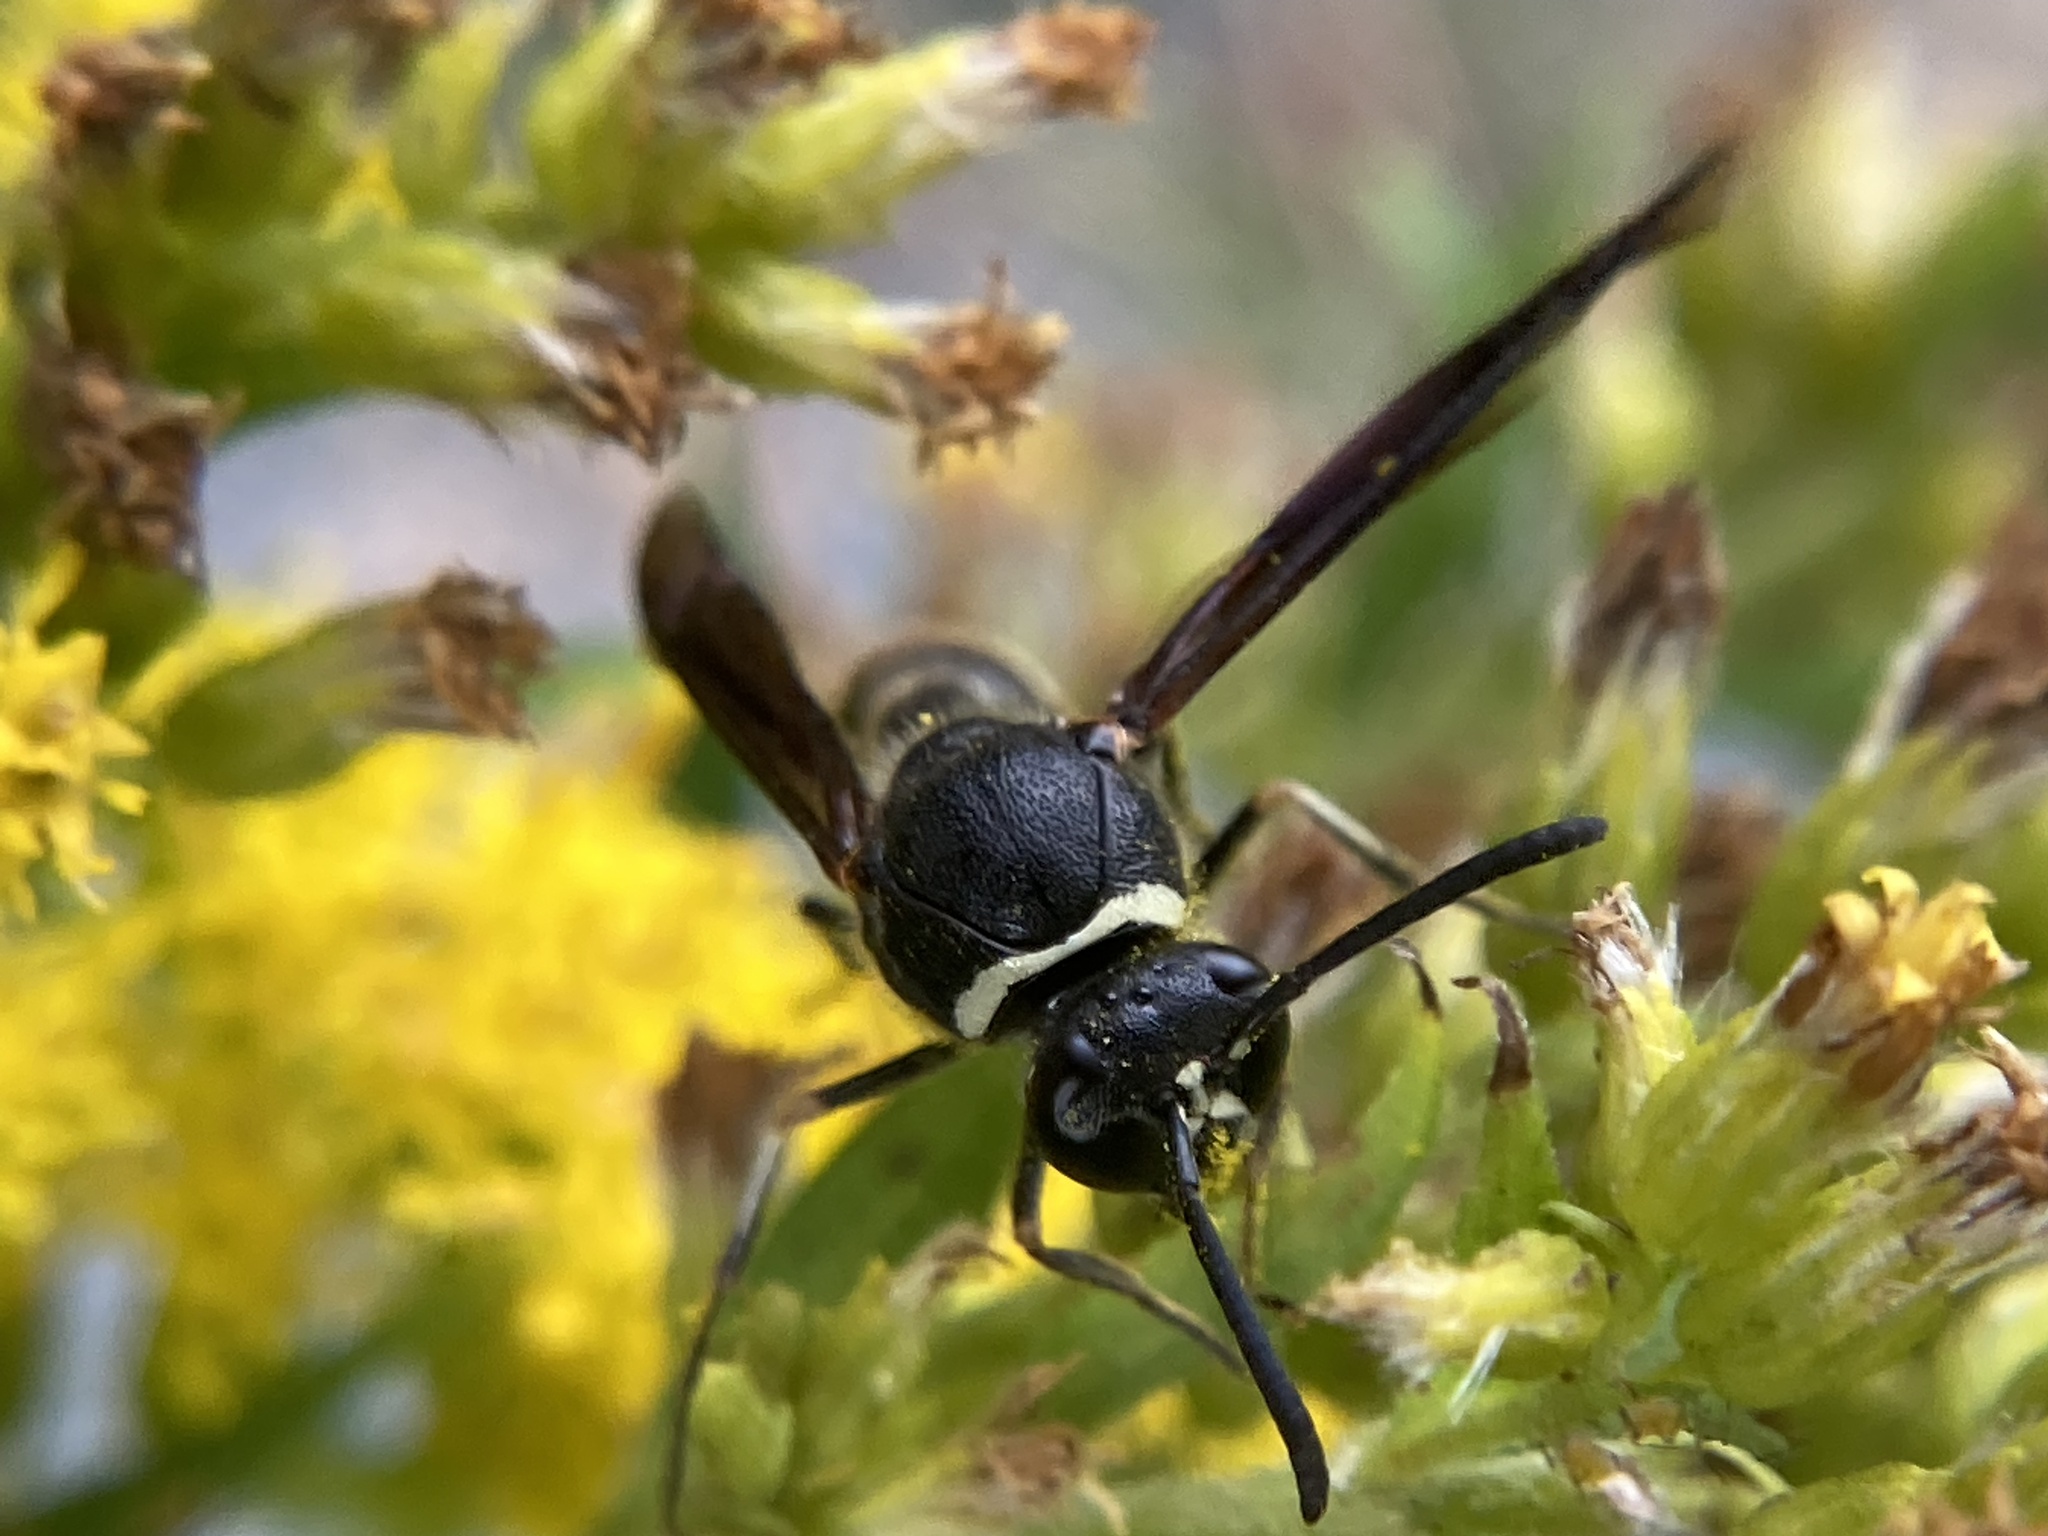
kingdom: Animalia
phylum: Arthropoda
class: Insecta
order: Hymenoptera
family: Vespidae
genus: Eumenes
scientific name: Eumenes fraternus
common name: Fraternal potter wasp
